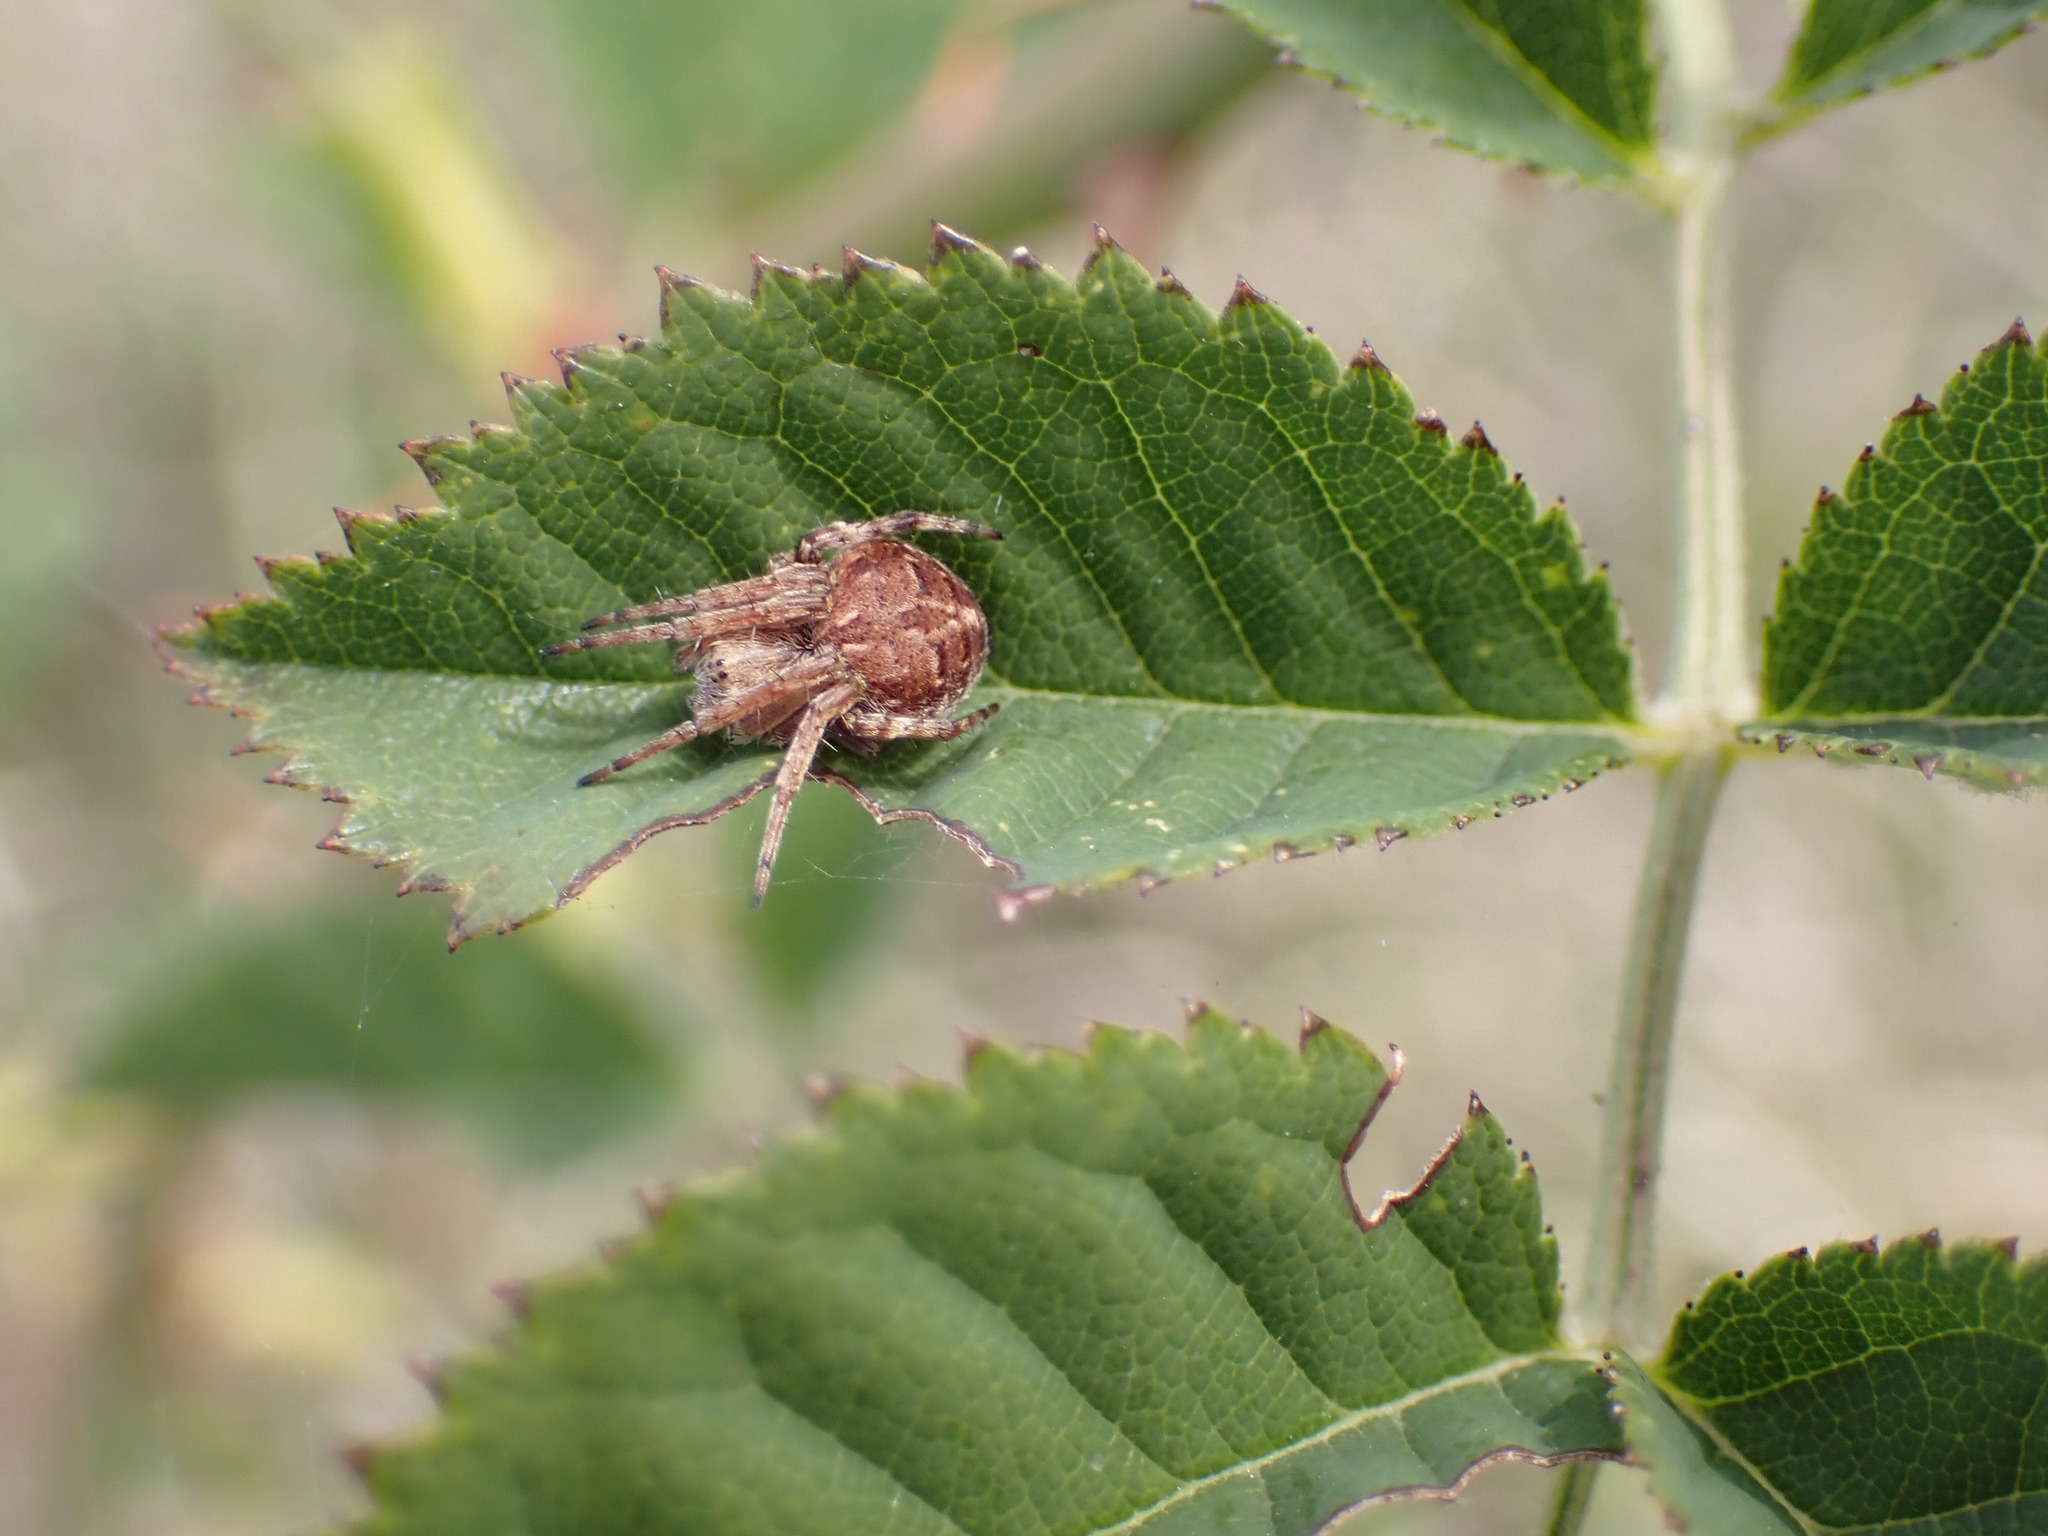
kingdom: Animalia
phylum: Arthropoda
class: Arachnida
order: Araneae
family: Araneidae
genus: Agalenatea
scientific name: Agalenatea redii
